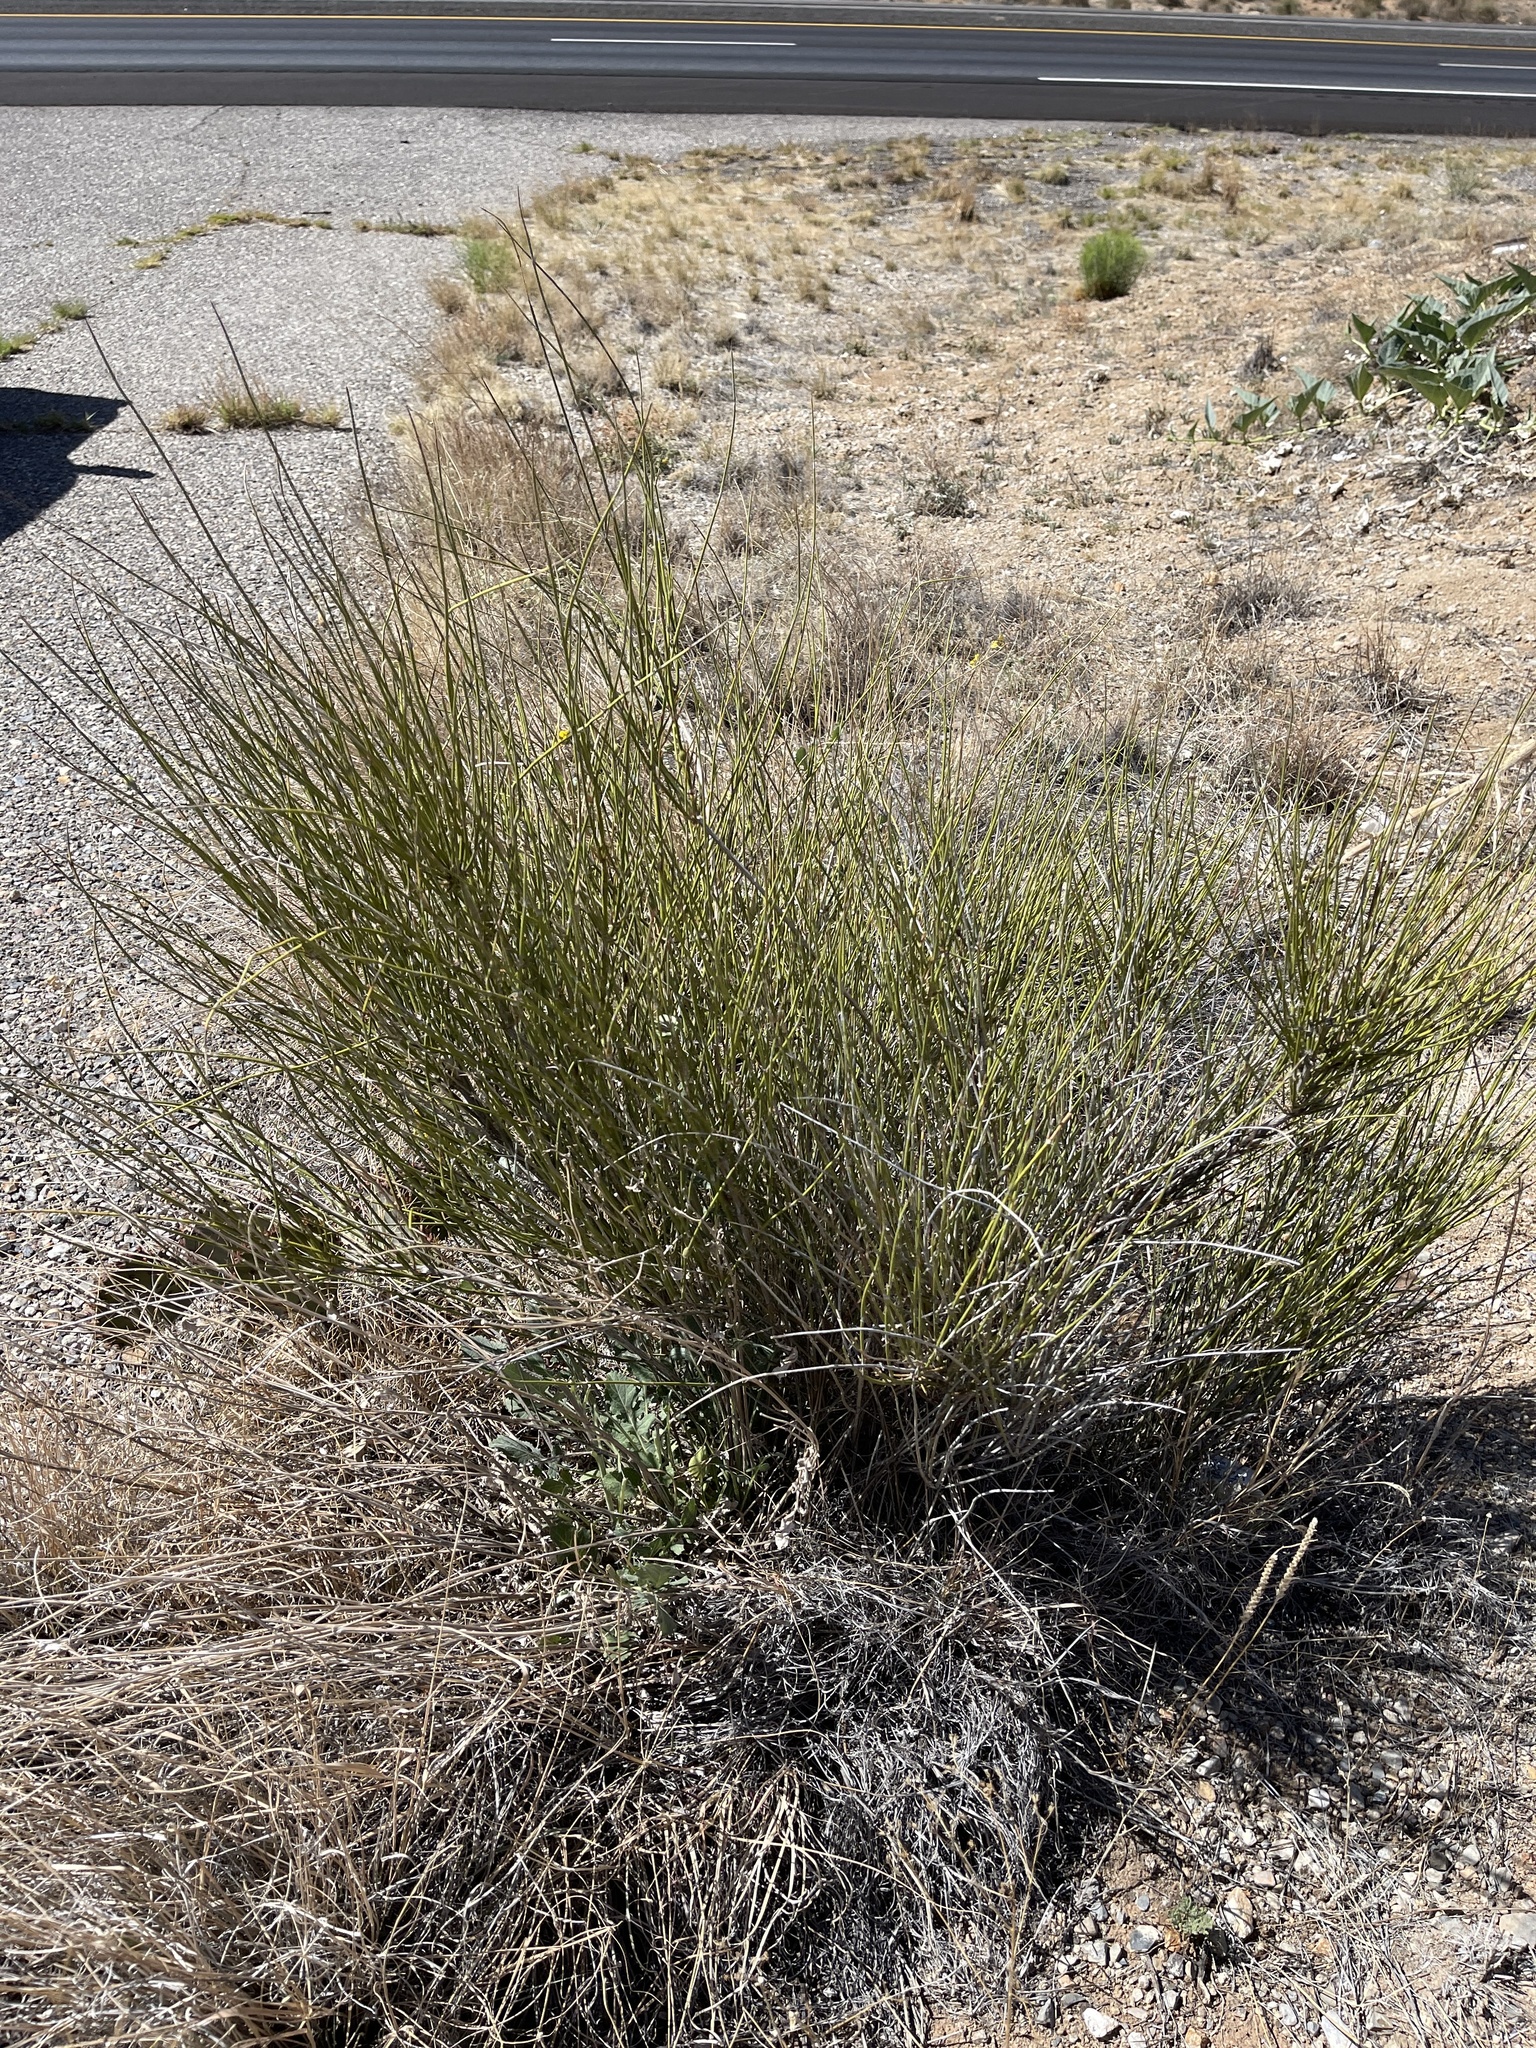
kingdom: Plantae
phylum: Tracheophyta
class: Gnetopsida
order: Ephedrales
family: Ephedraceae
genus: Ephedra
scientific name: Ephedra trifurca
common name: Mexican-tea
